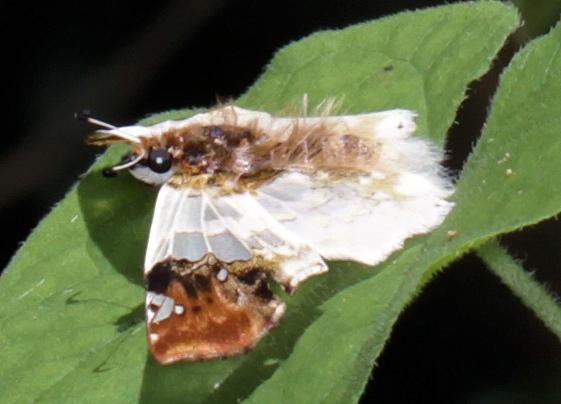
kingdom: Animalia
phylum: Arthropoda
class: Insecta
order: Lepidoptera
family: Hesperiidae
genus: Abantis
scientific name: Abantis
